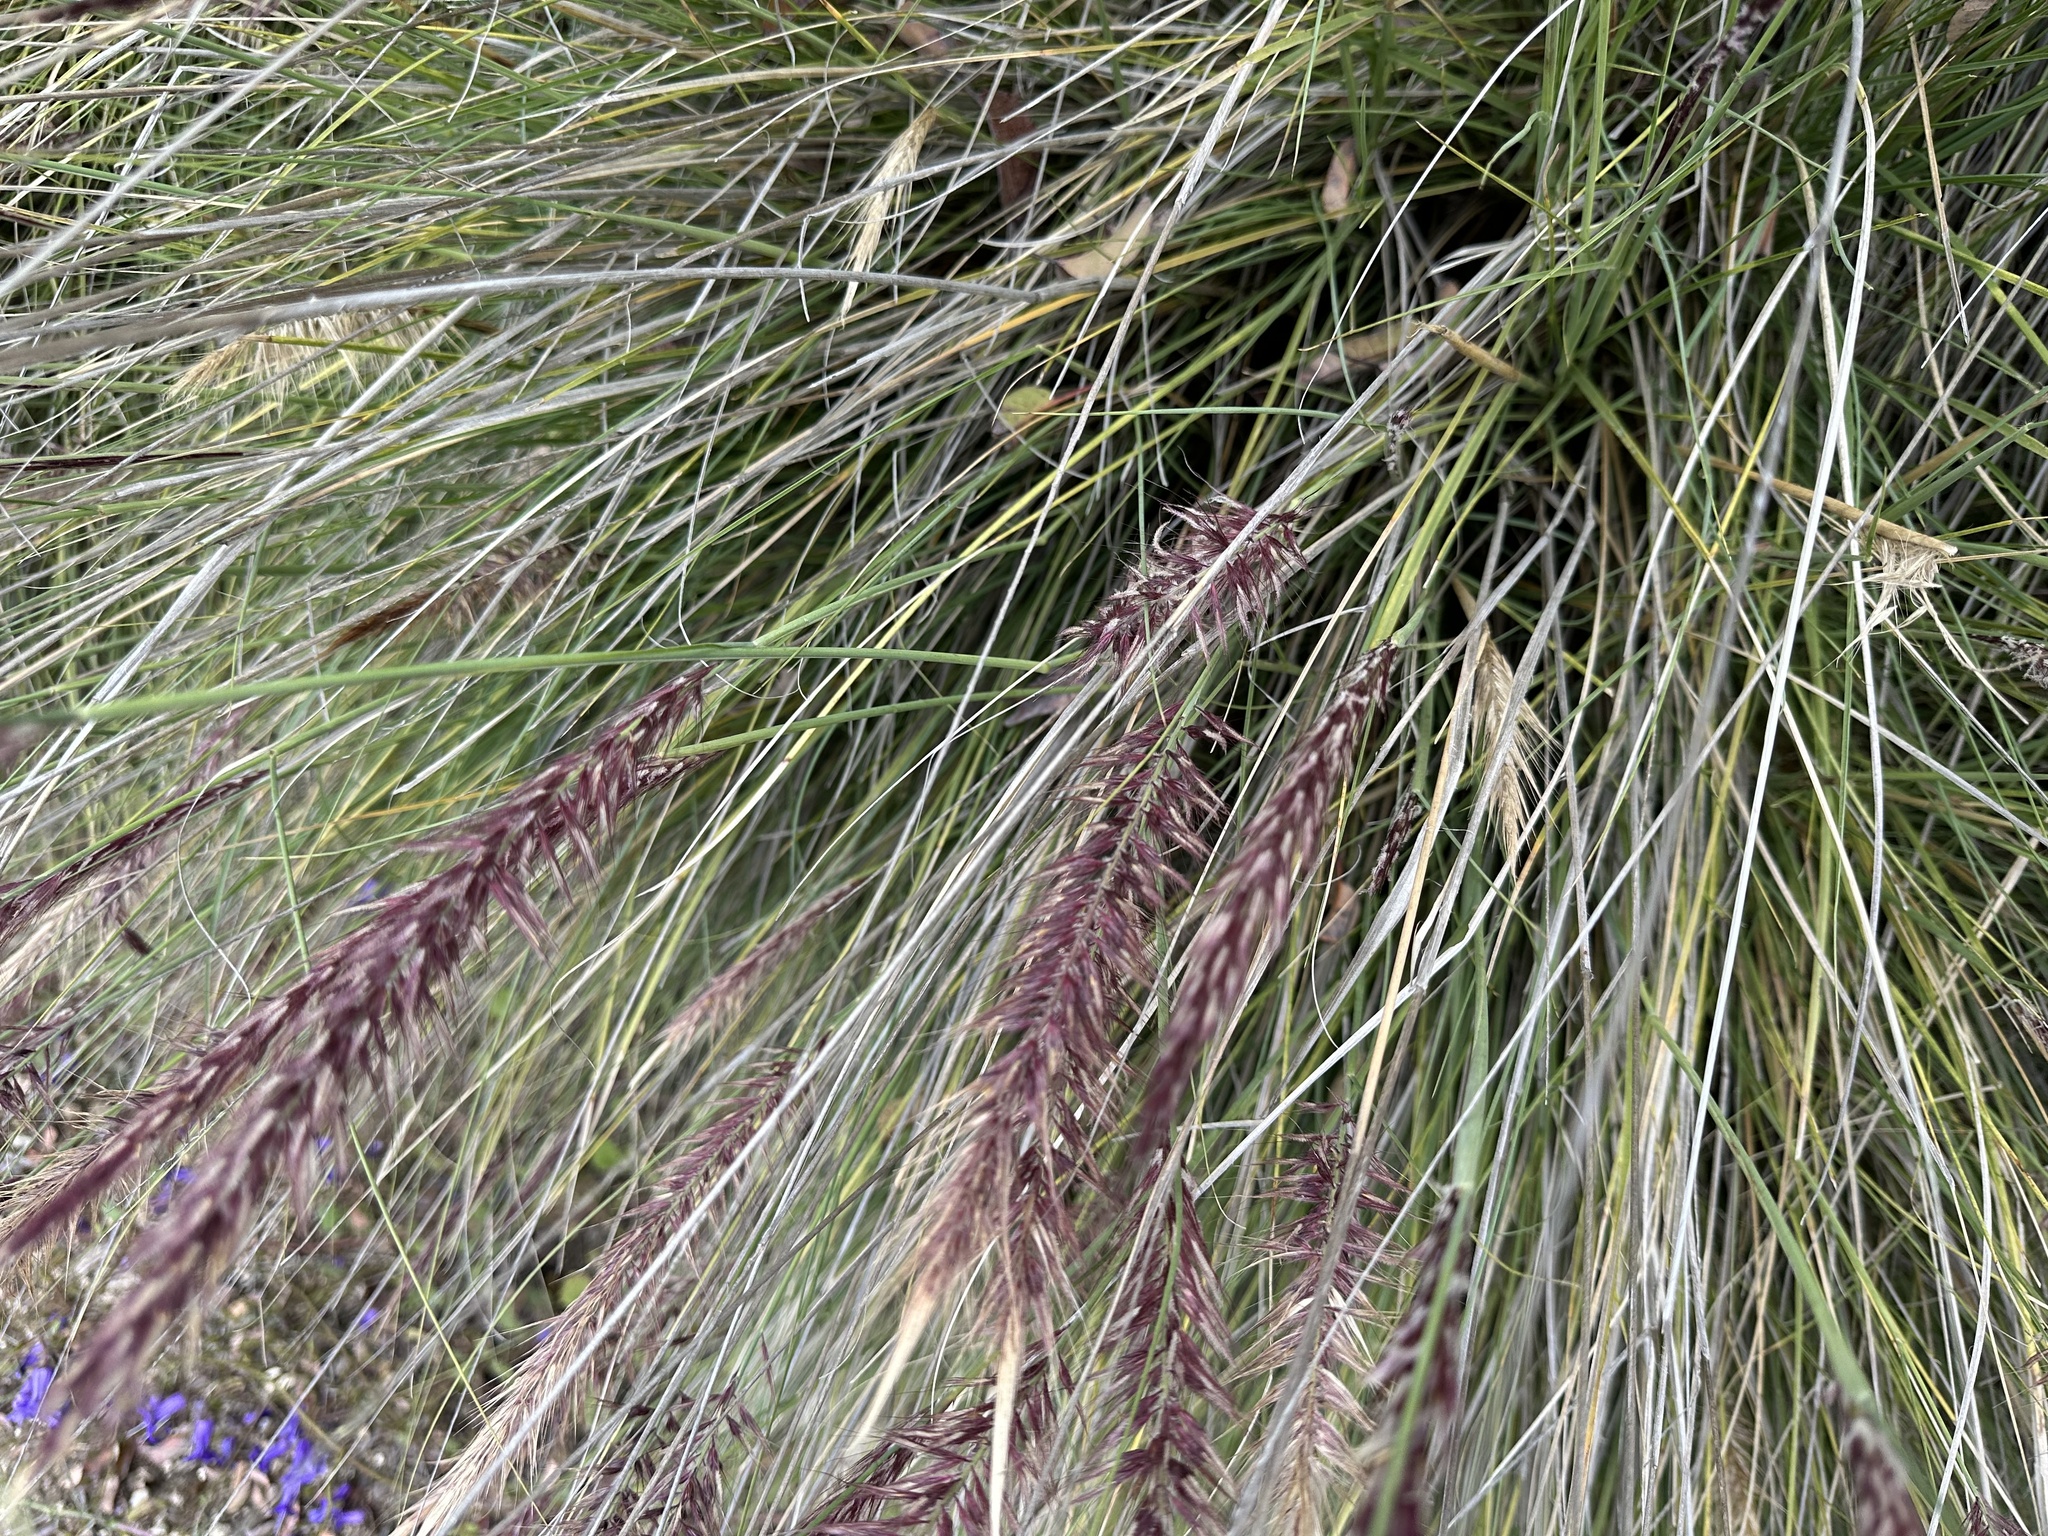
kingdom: Plantae
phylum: Tracheophyta
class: Liliopsida
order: Poales
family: Poaceae
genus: Cenchrus
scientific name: Cenchrus setaceus
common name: Crimson fountaingrass
